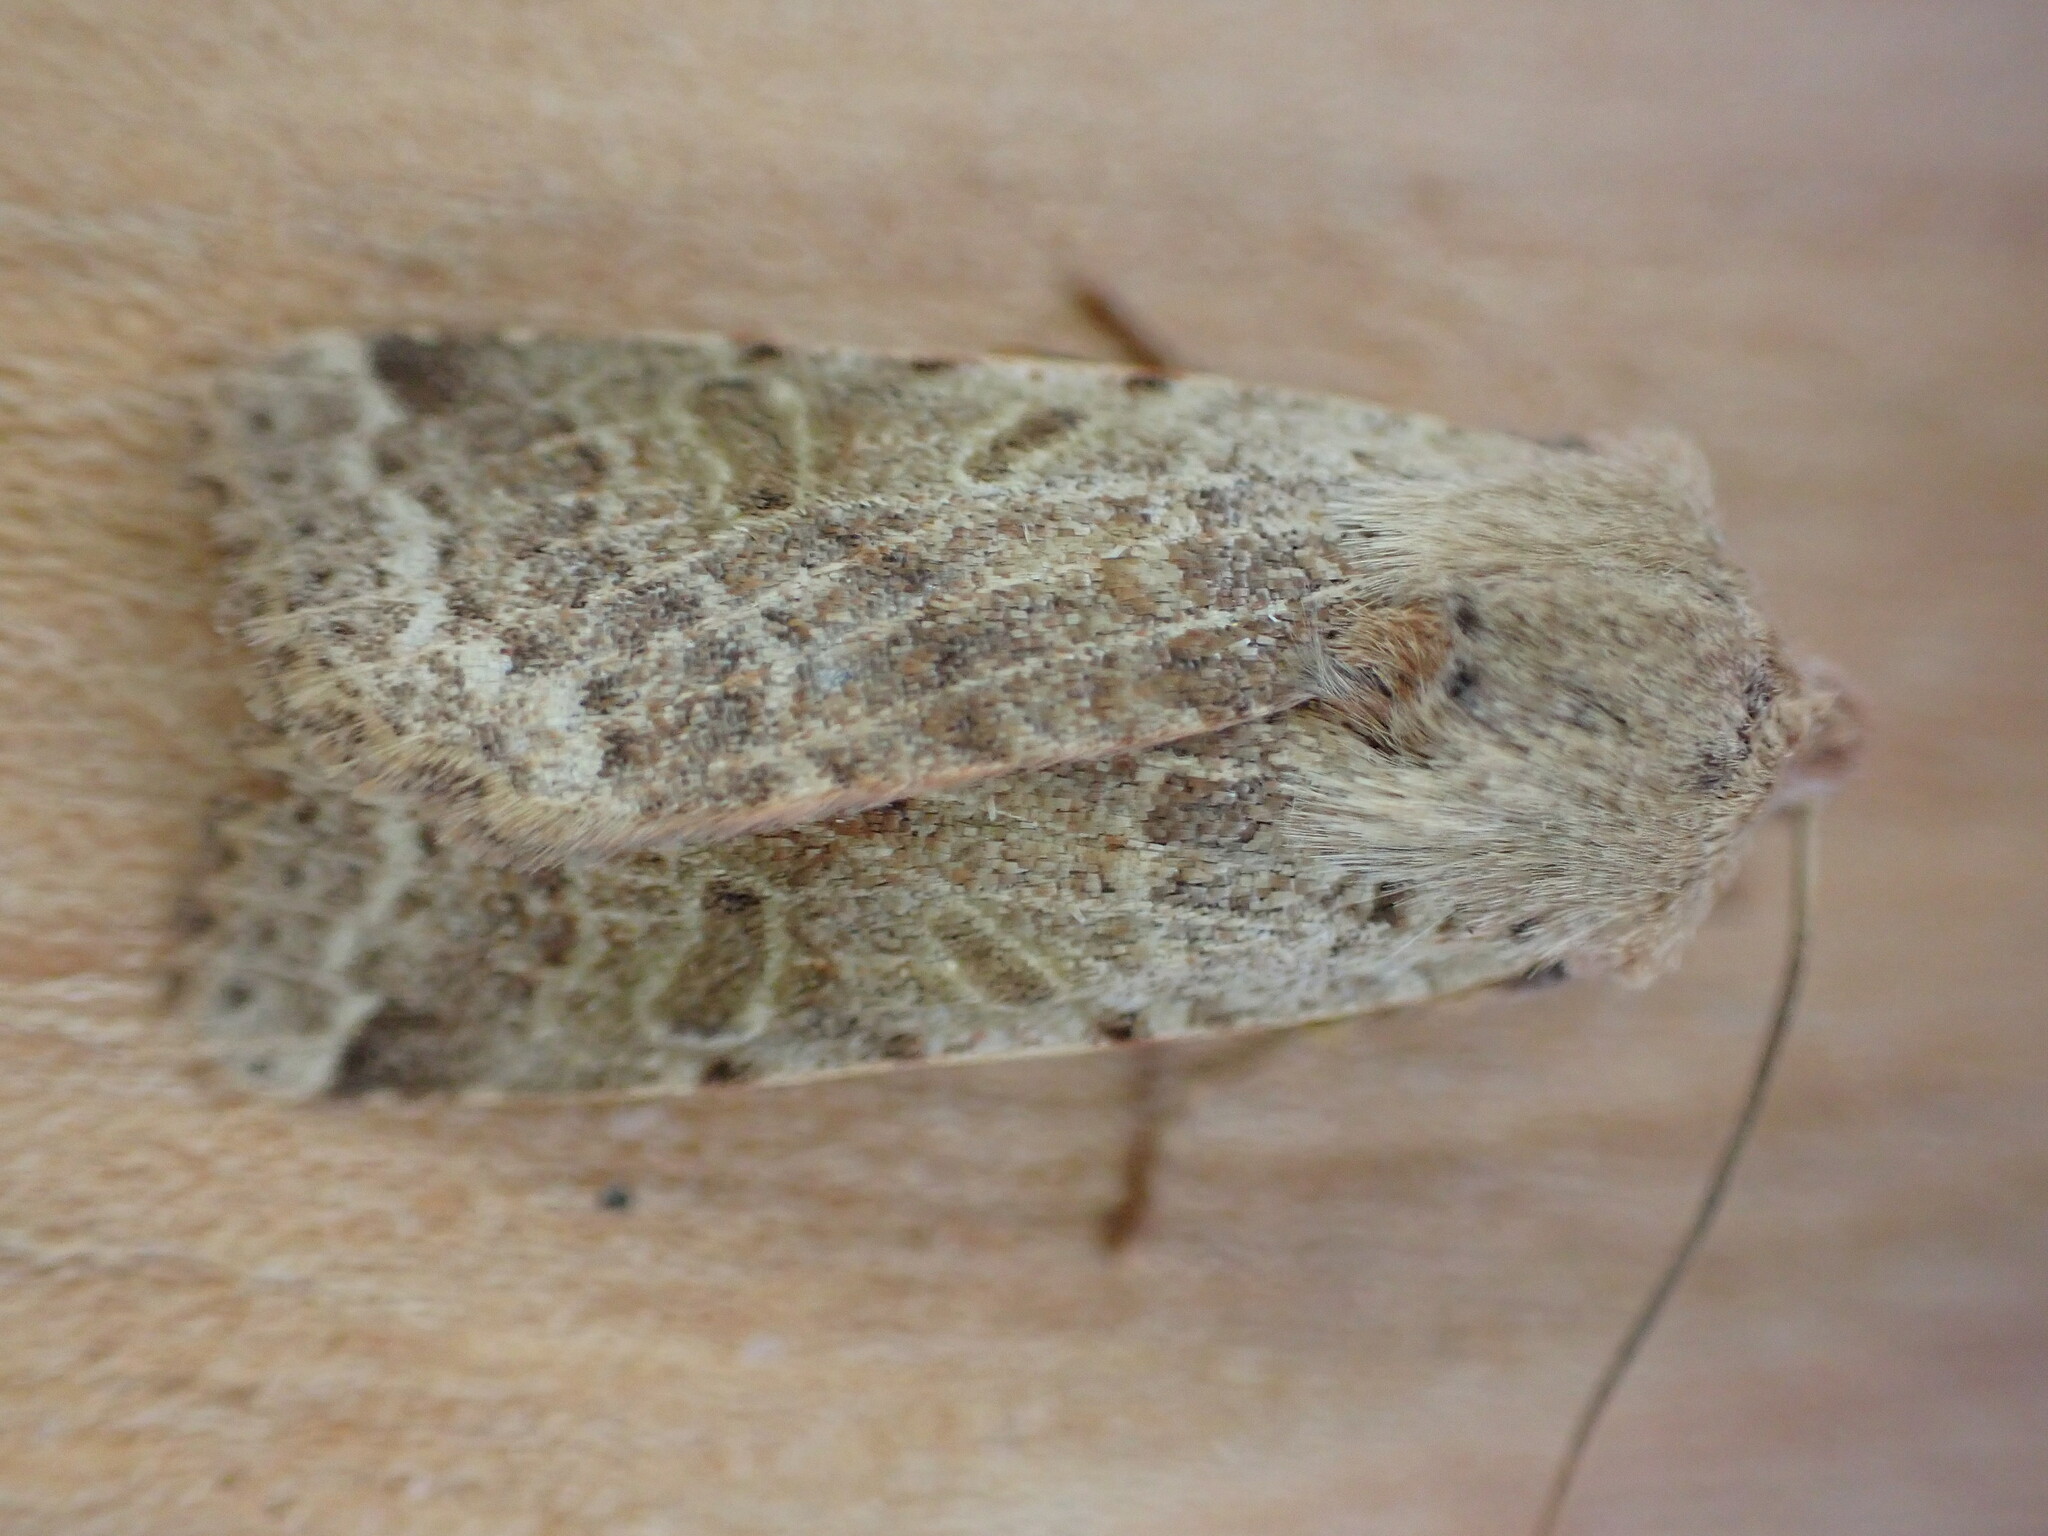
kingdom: Animalia
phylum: Arthropoda
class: Insecta
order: Lepidoptera
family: Noctuidae
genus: Agrochola
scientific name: Agrochola lychnidis
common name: Beaded chestnut
